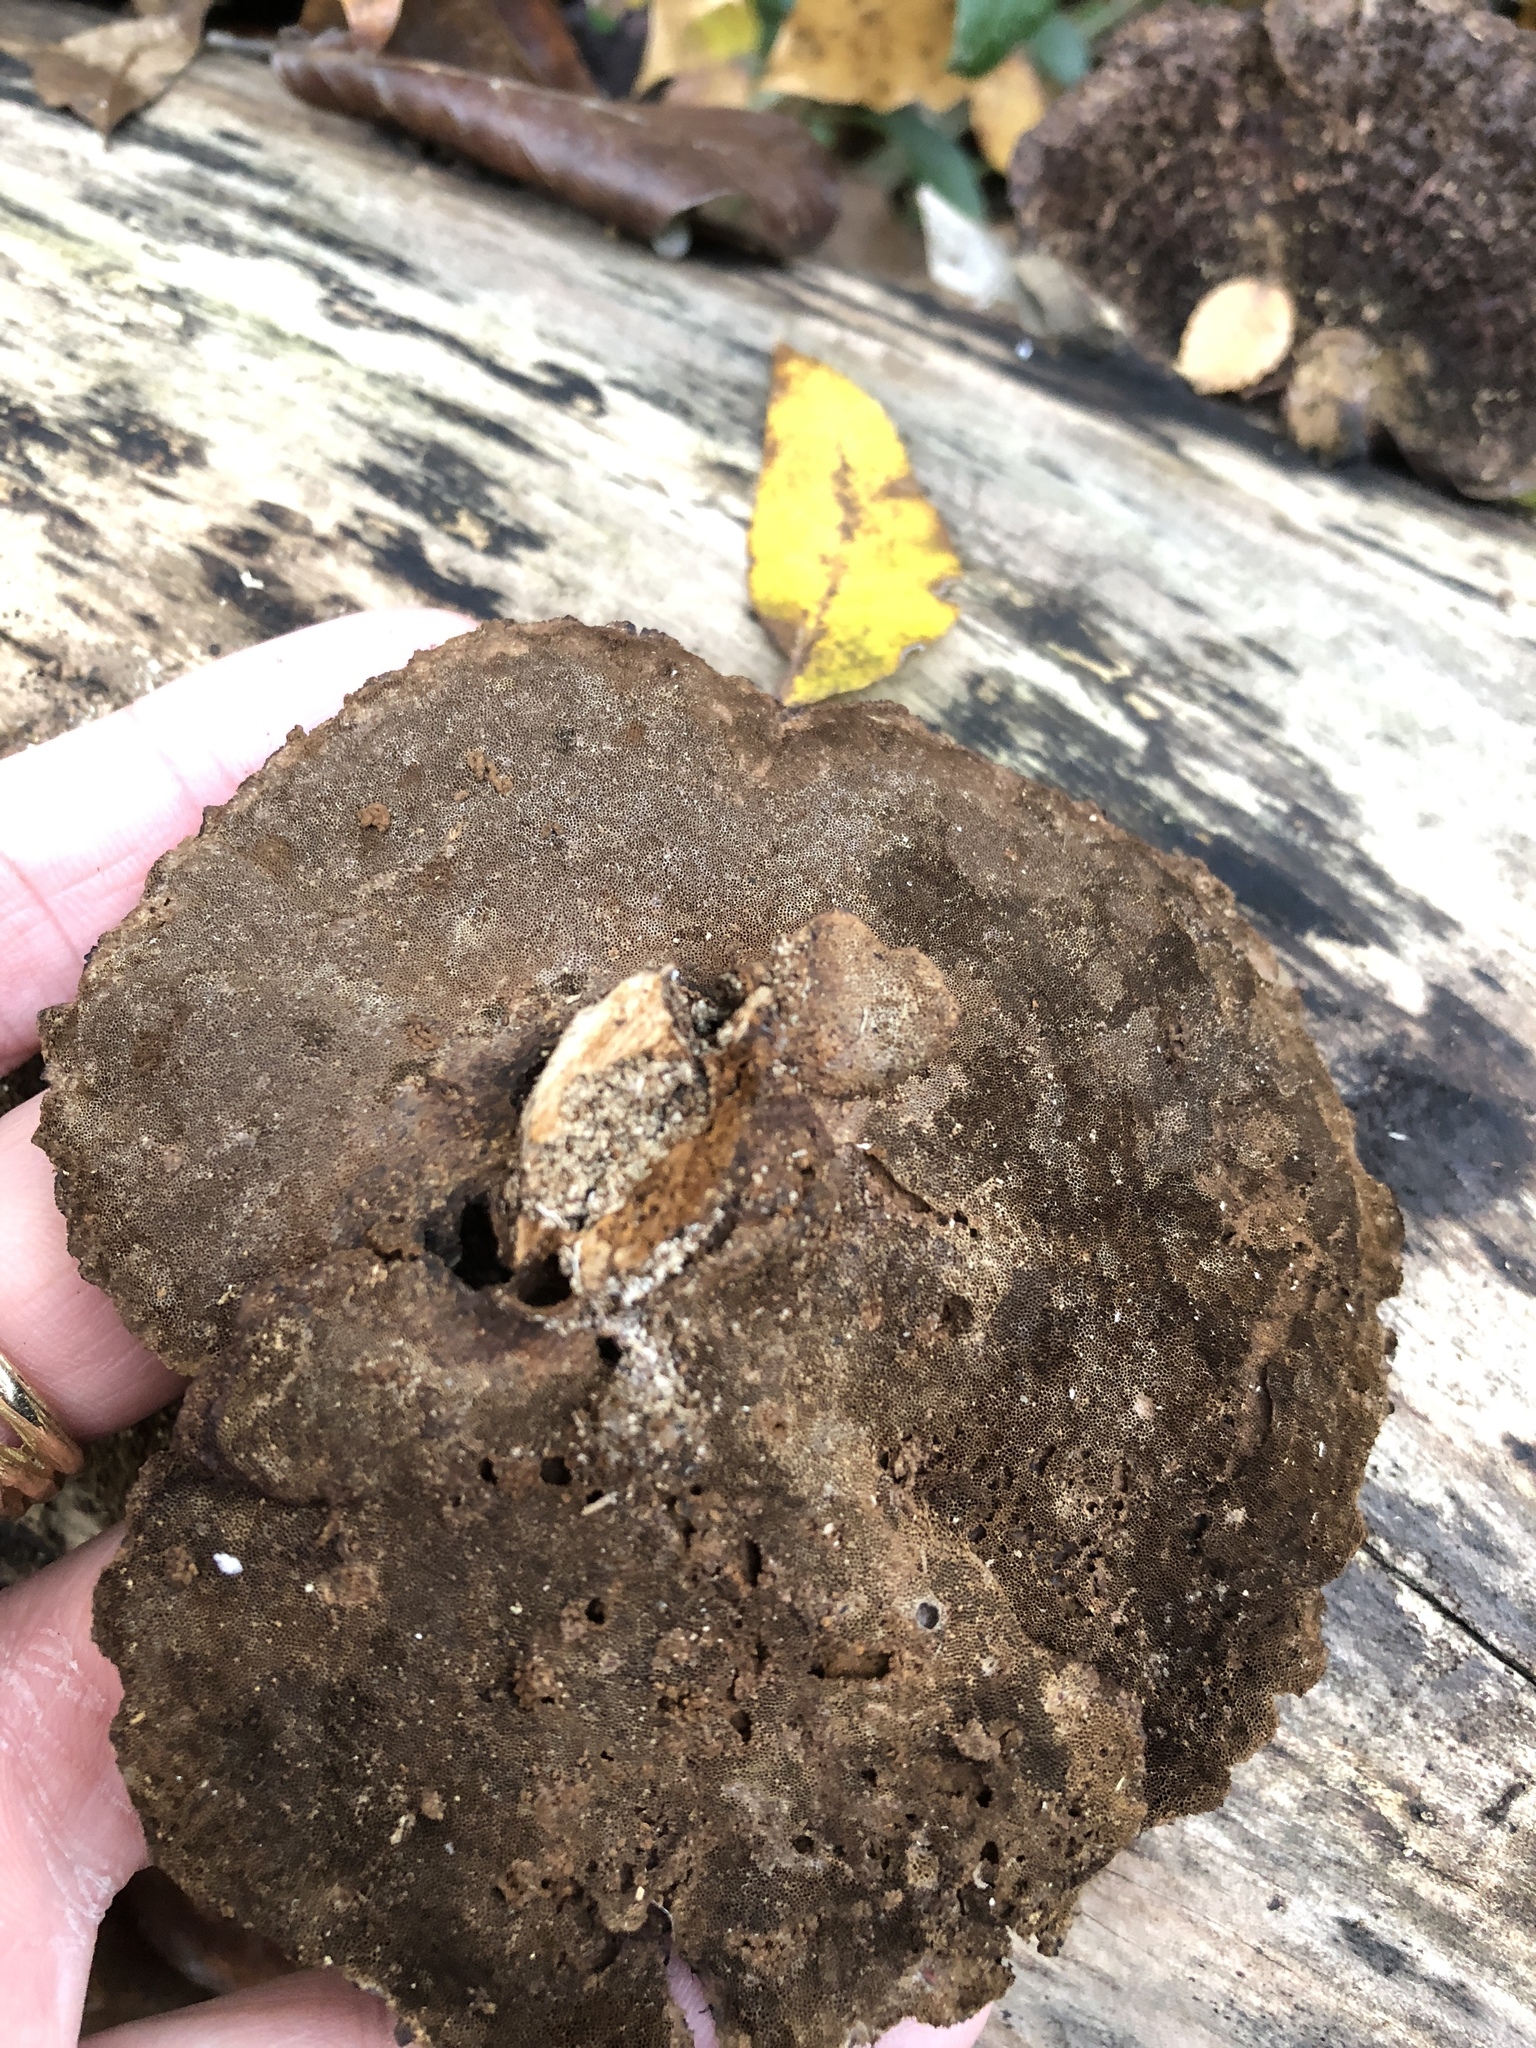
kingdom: Fungi
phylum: Basidiomycota
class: Agaricomycetes
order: Polyporales
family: Cerrenaceae
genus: Cerrena
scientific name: Cerrena hydnoides
